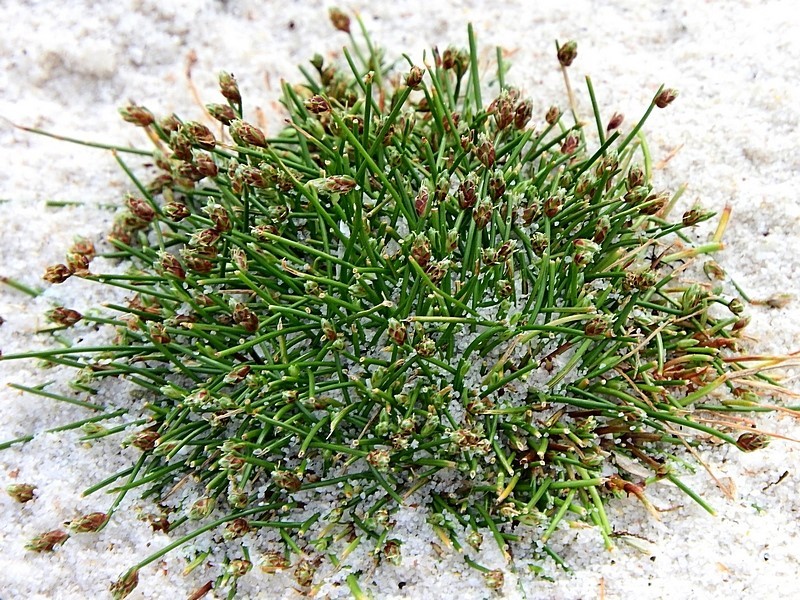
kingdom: Plantae
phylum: Tracheophyta
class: Liliopsida
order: Poales
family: Cyperaceae
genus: Isolepis
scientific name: Isolepis cernua
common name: Slender club-rush
